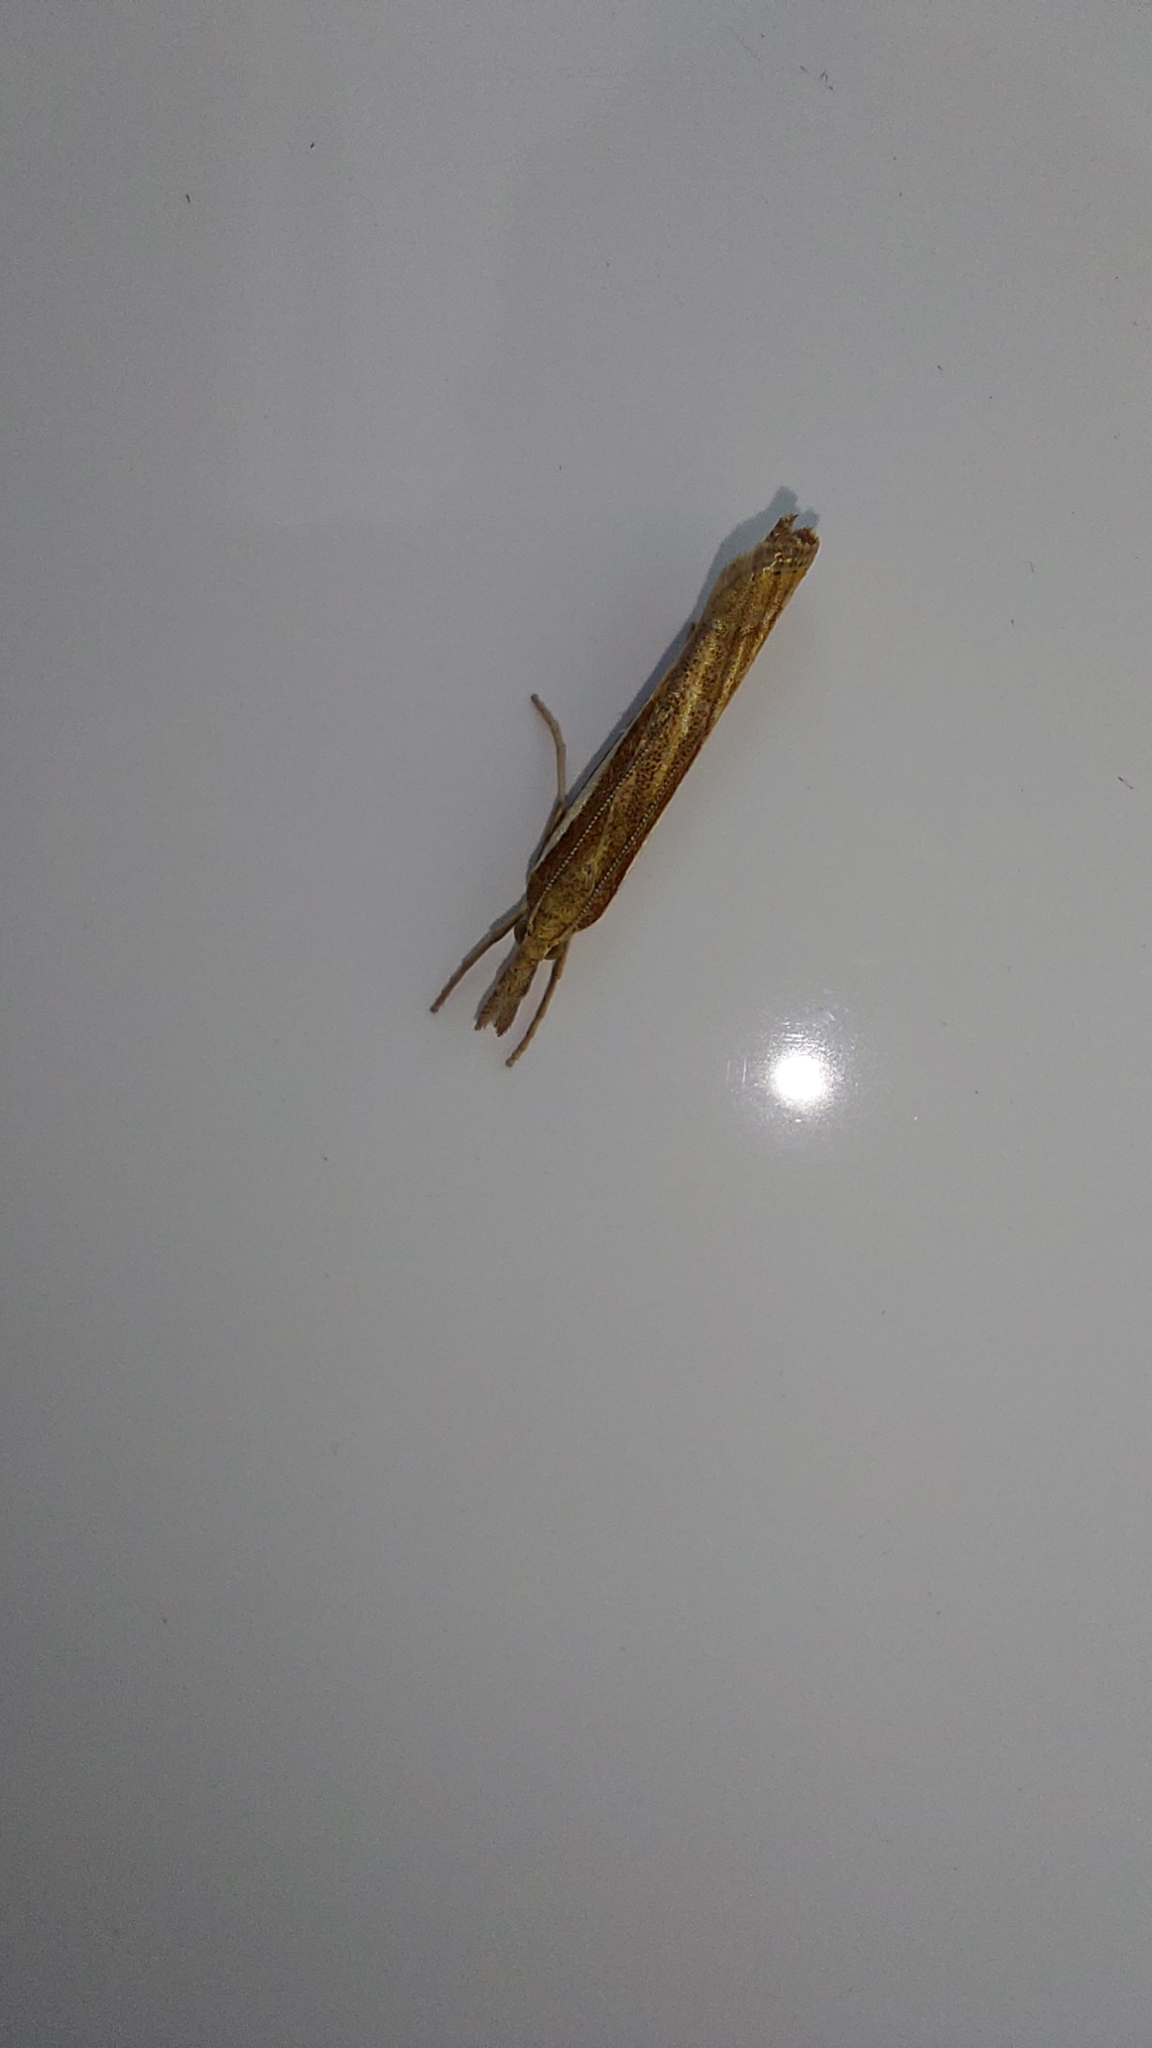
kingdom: Animalia
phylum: Arthropoda
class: Insecta
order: Lepidoptera
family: Crambidae
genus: Agriphila
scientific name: Agriphila tristellus
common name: Common grass-veneer
